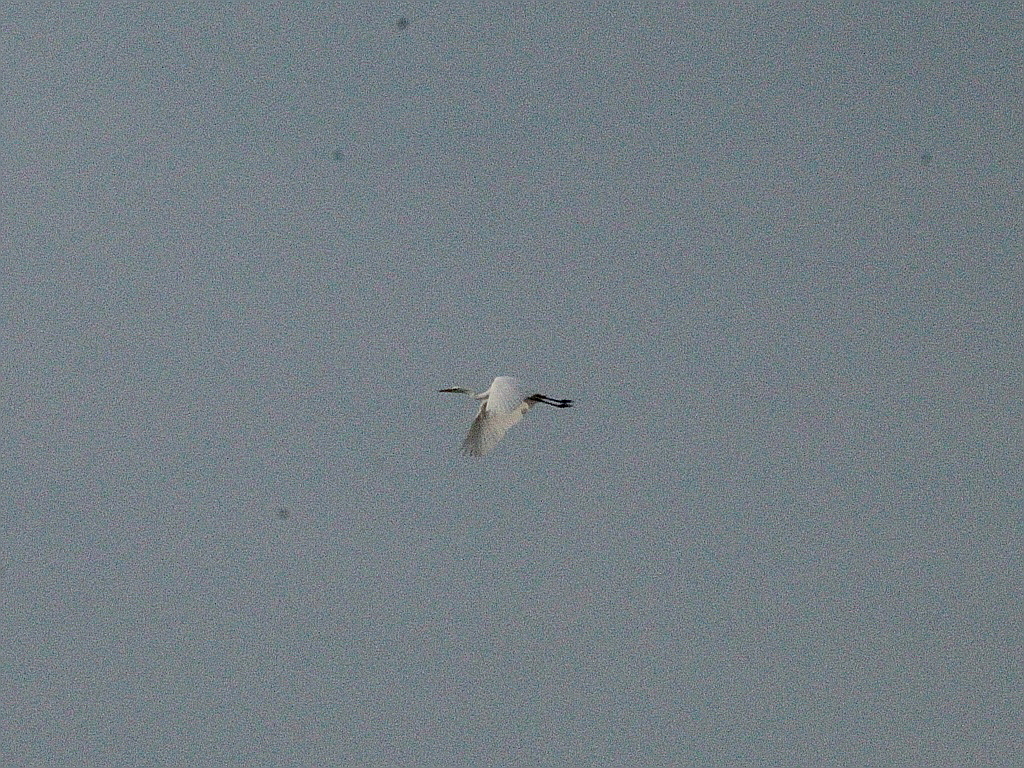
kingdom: Animalia
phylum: Chordata
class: Aves
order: Pelecaniformes
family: Ardeidae
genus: Ardea
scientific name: Ardea alba
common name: Great egret
